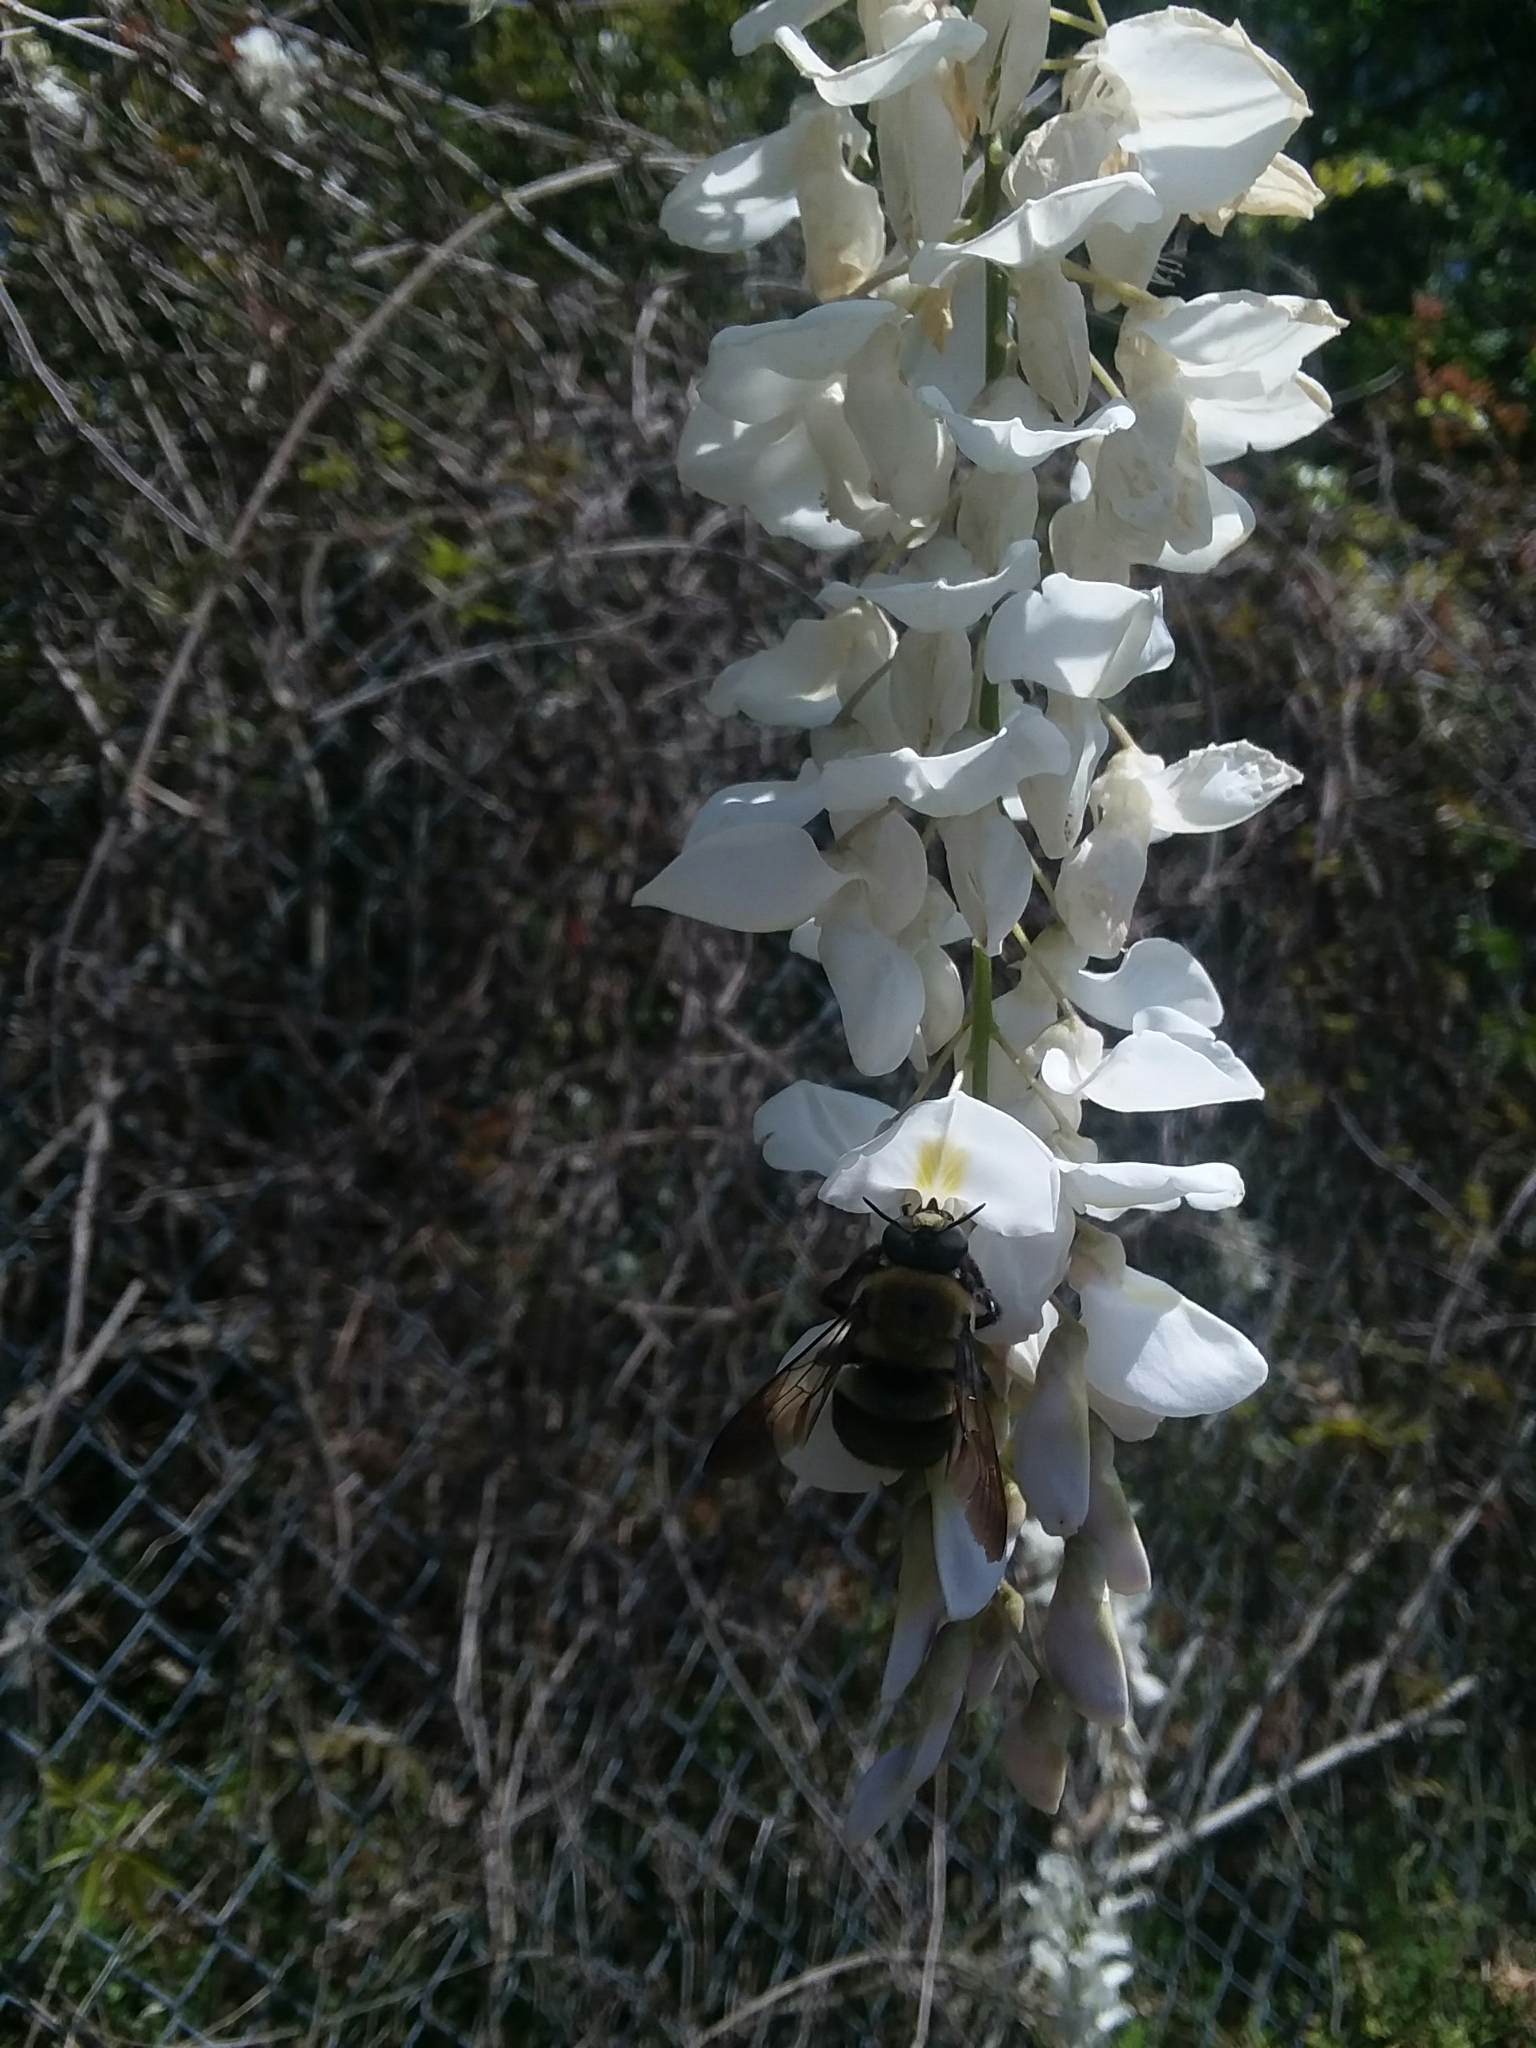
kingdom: Animalia
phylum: Arthropoda
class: Insecta
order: Hymenoptera
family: Apidae
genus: Xylocopa
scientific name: Xylocopa virginica
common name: Carpenter bee
